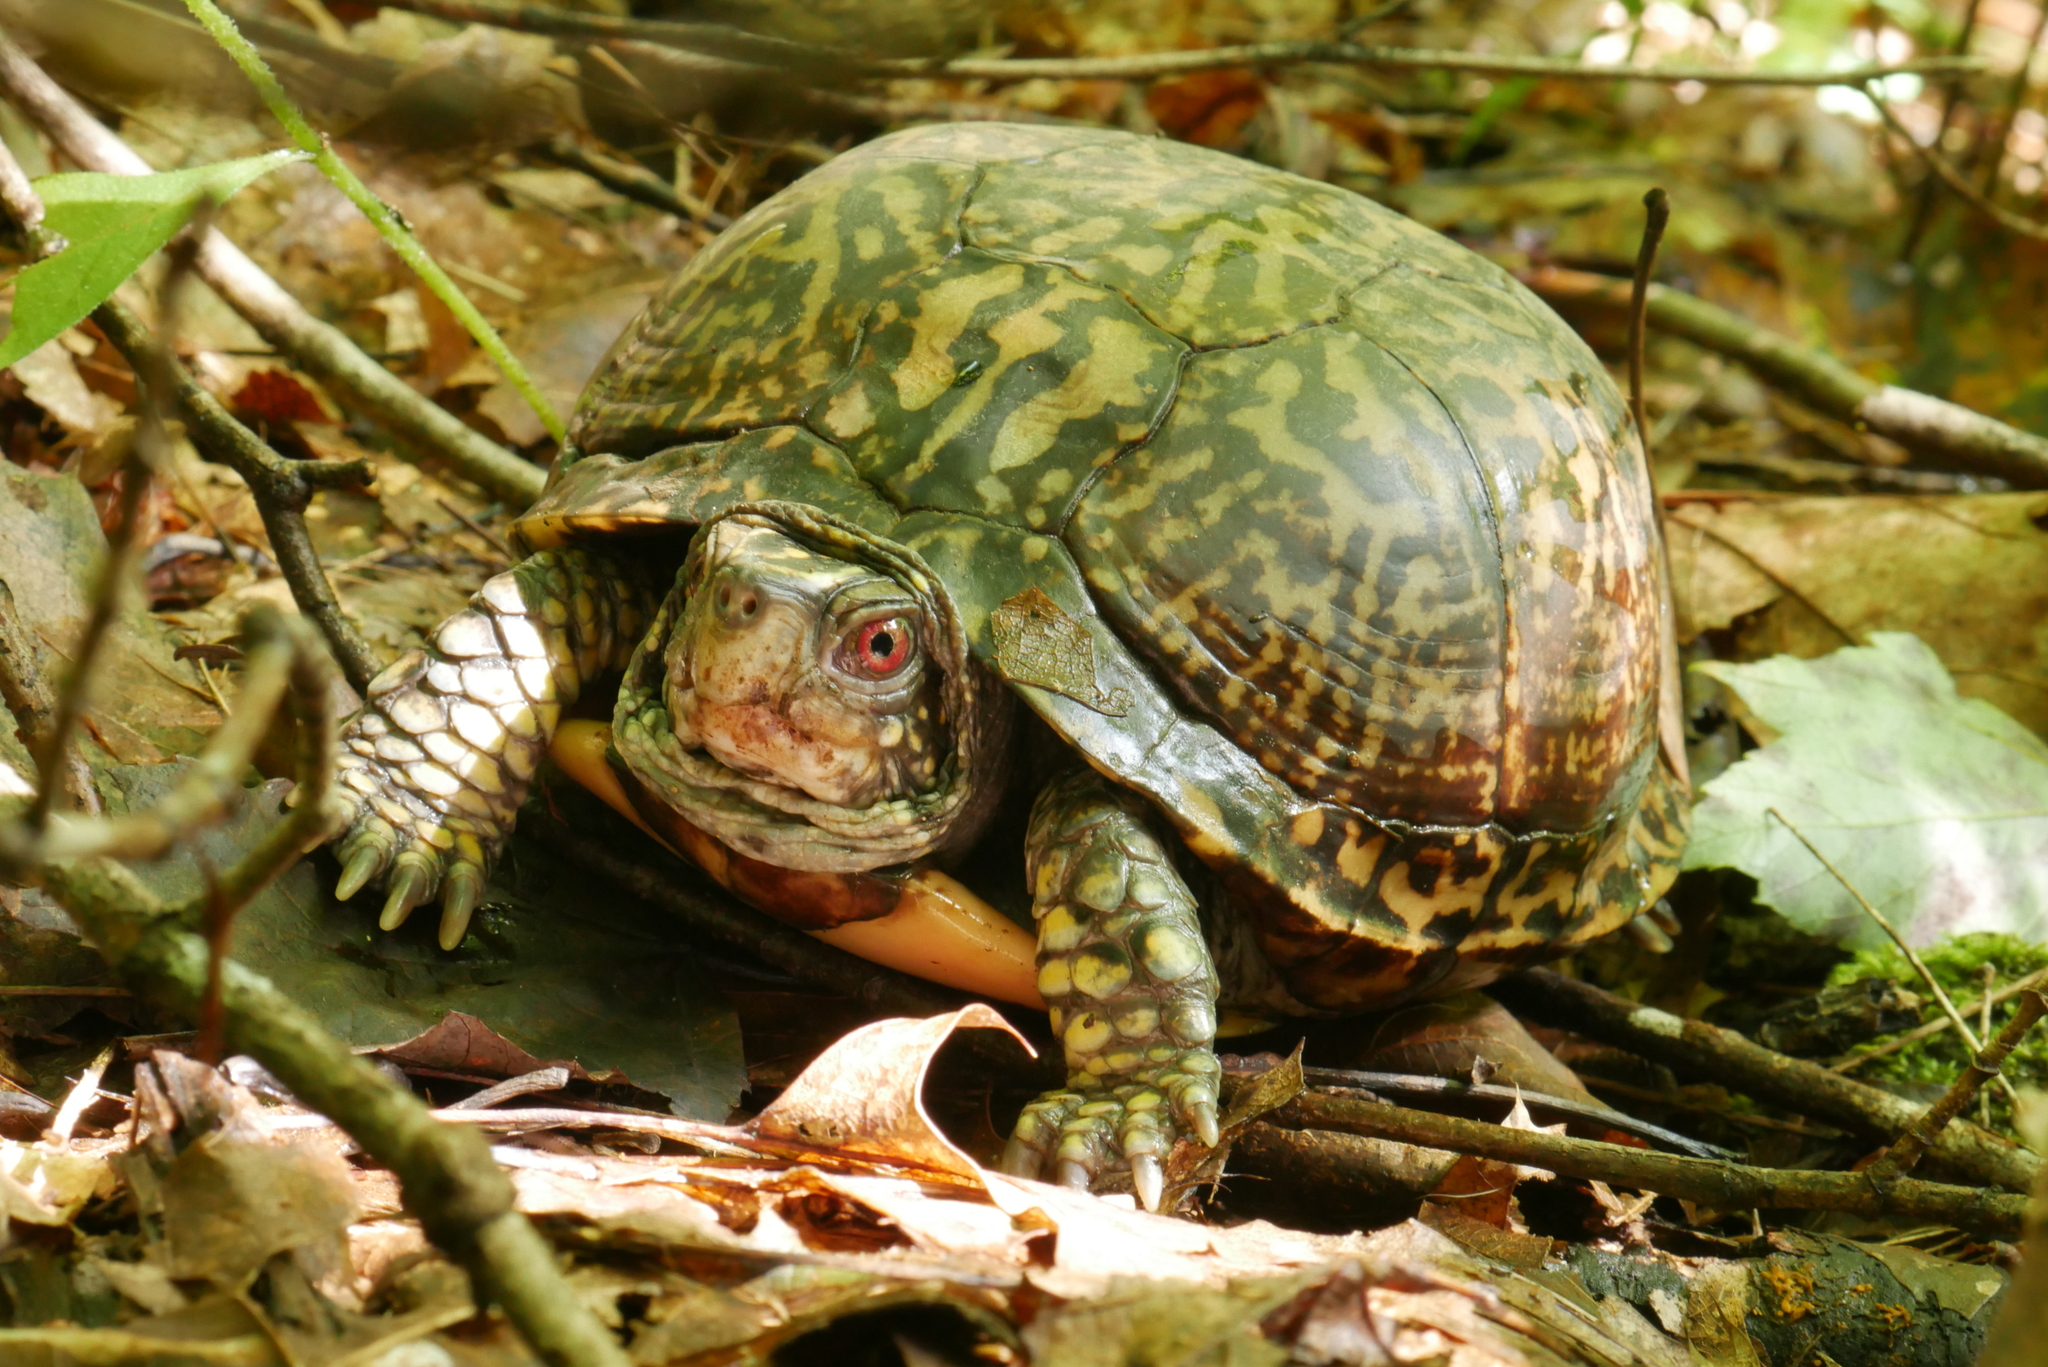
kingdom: Animalia
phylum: Chordata
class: Testudines
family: Emydidae
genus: Terrapene
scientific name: Terrapene carolina
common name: Common box turtle
